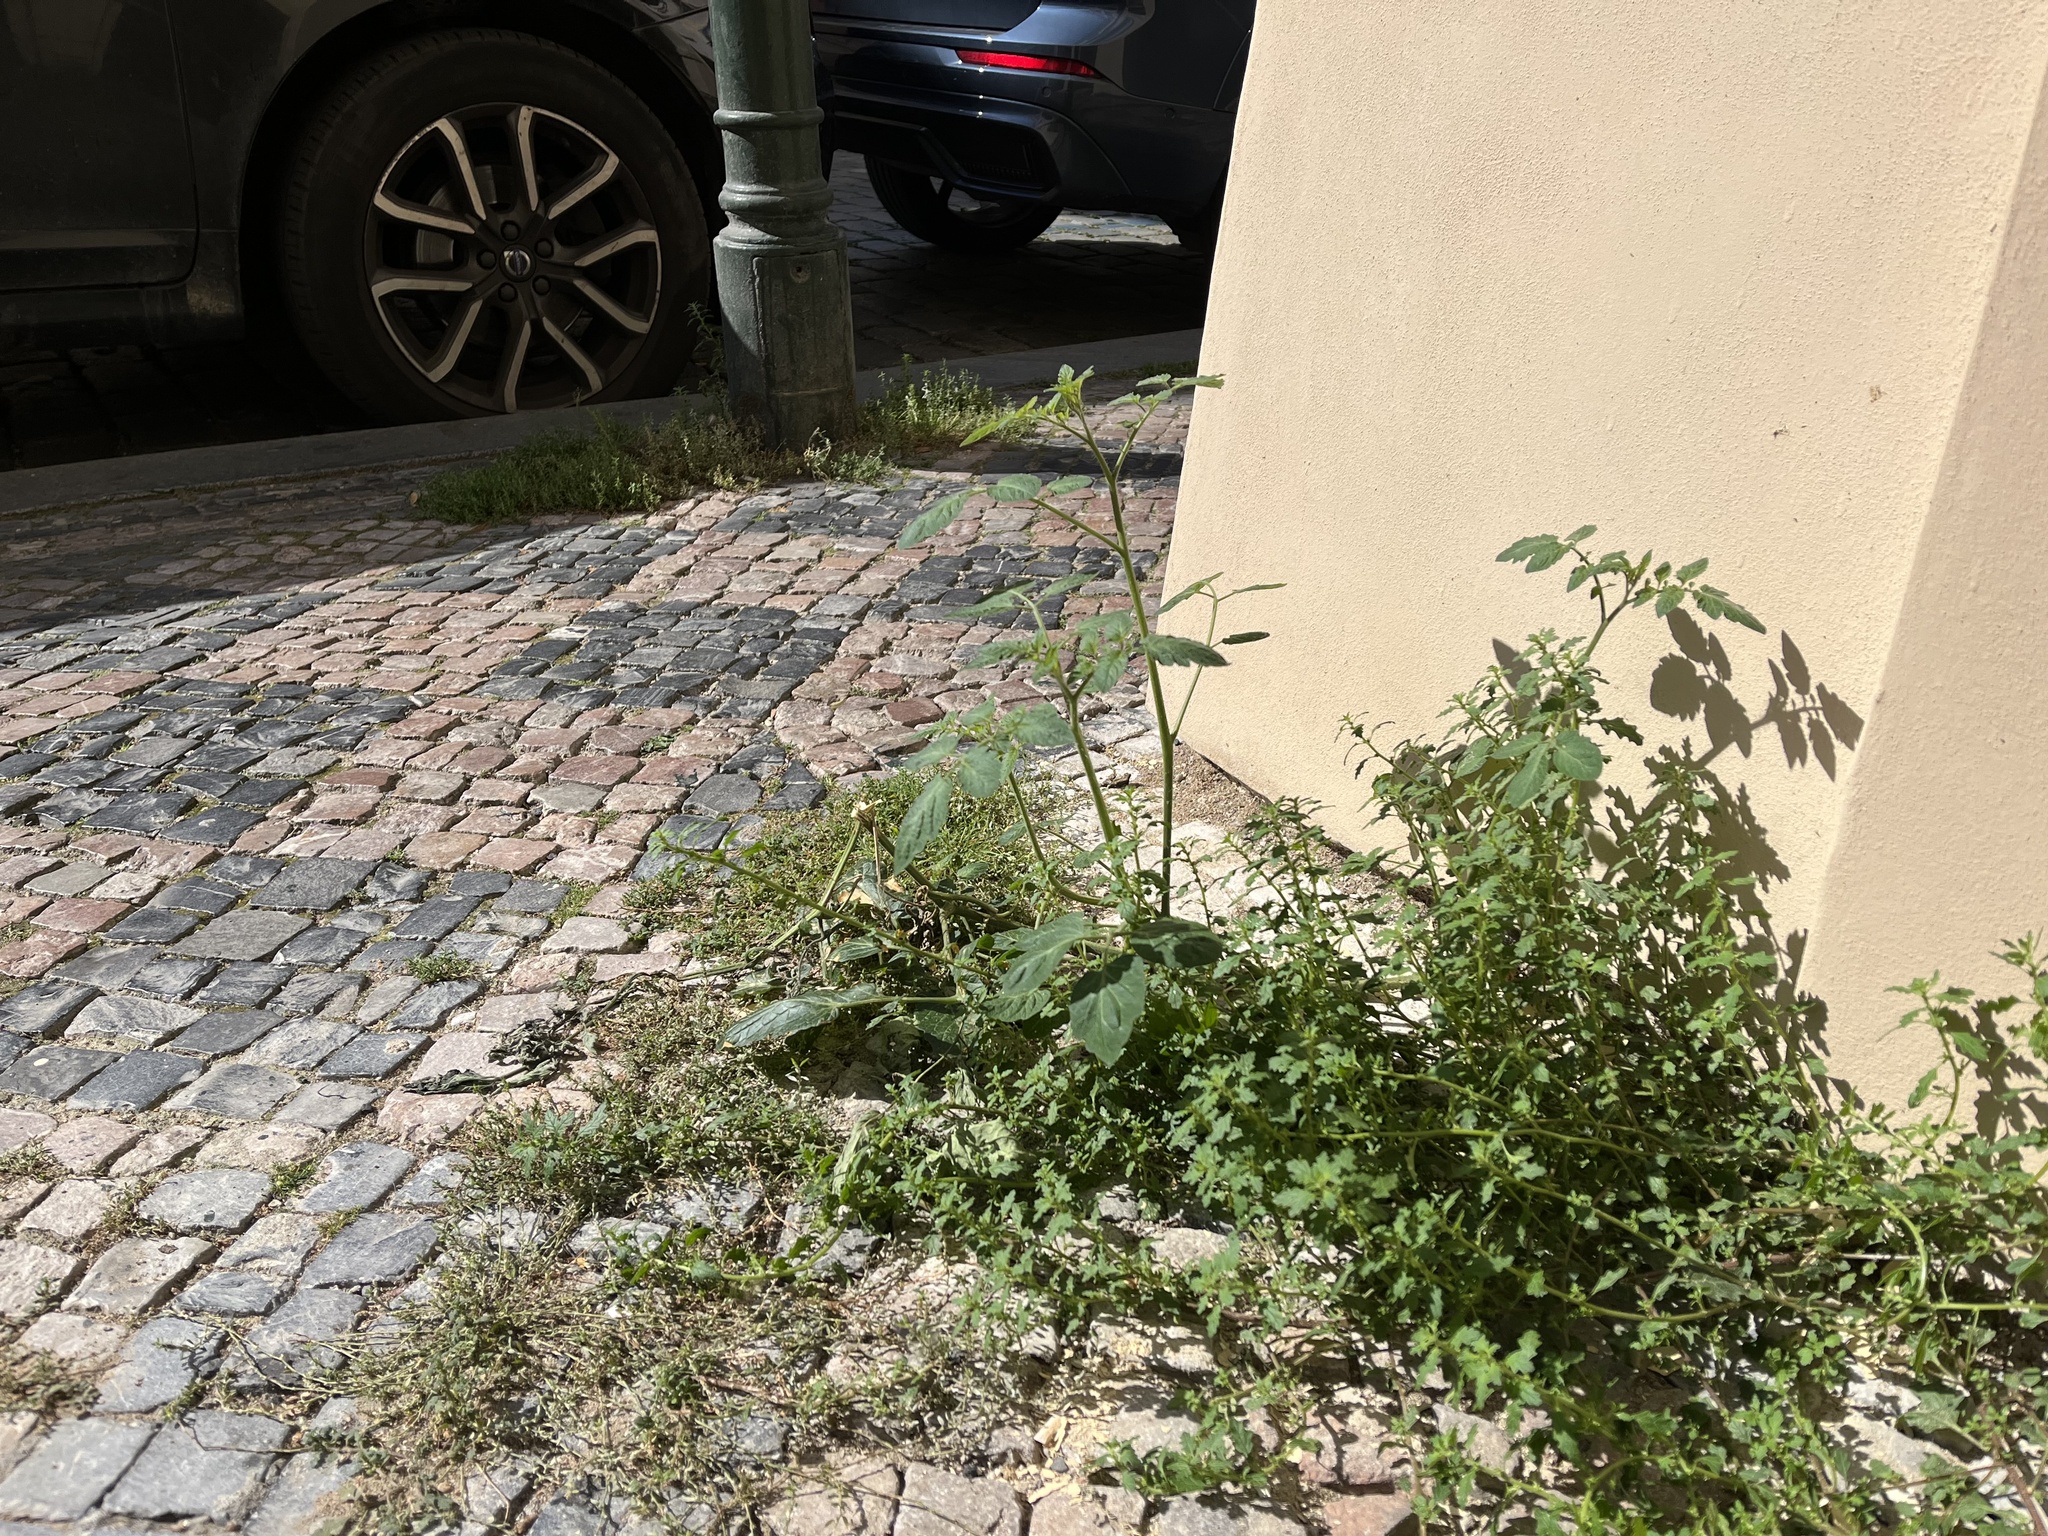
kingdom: Plantae
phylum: Tracheophyta
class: Magnoliopsida
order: Solanales
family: Solanaceae
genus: Solanum
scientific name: Solanum lycopersicum
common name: Garden tomato
